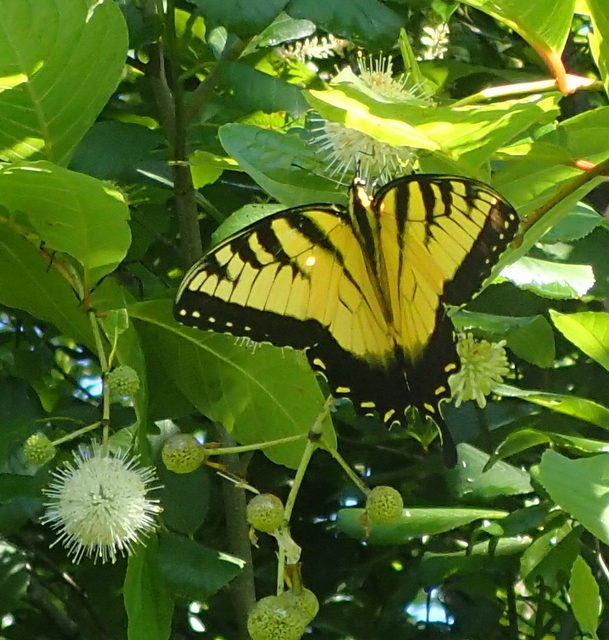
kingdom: Animalia
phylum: Arthropoda
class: Insecta
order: Lepidoptera
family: Papilionidae
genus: Papilio
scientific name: Papilio glaucus
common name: Tiger swallowtail
